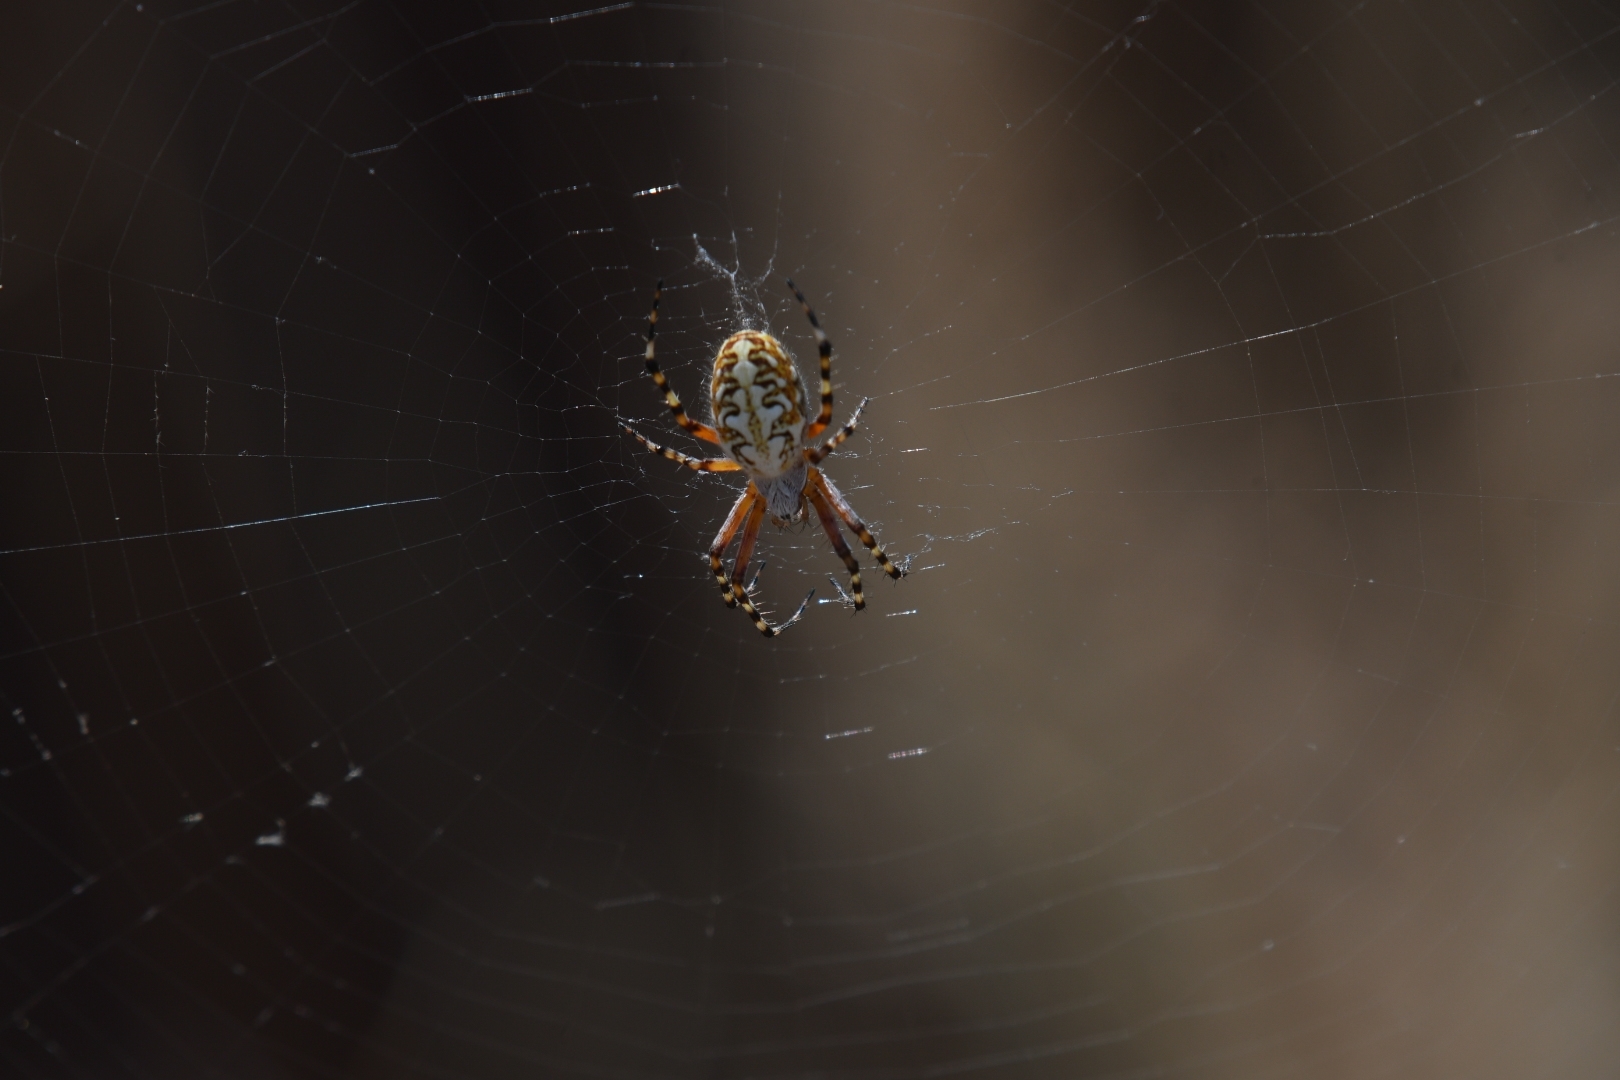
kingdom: Animalia
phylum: Arthropoda
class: Arachnida
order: Araneae
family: Araneidae
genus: Araneus
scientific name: Araneus annulipes
